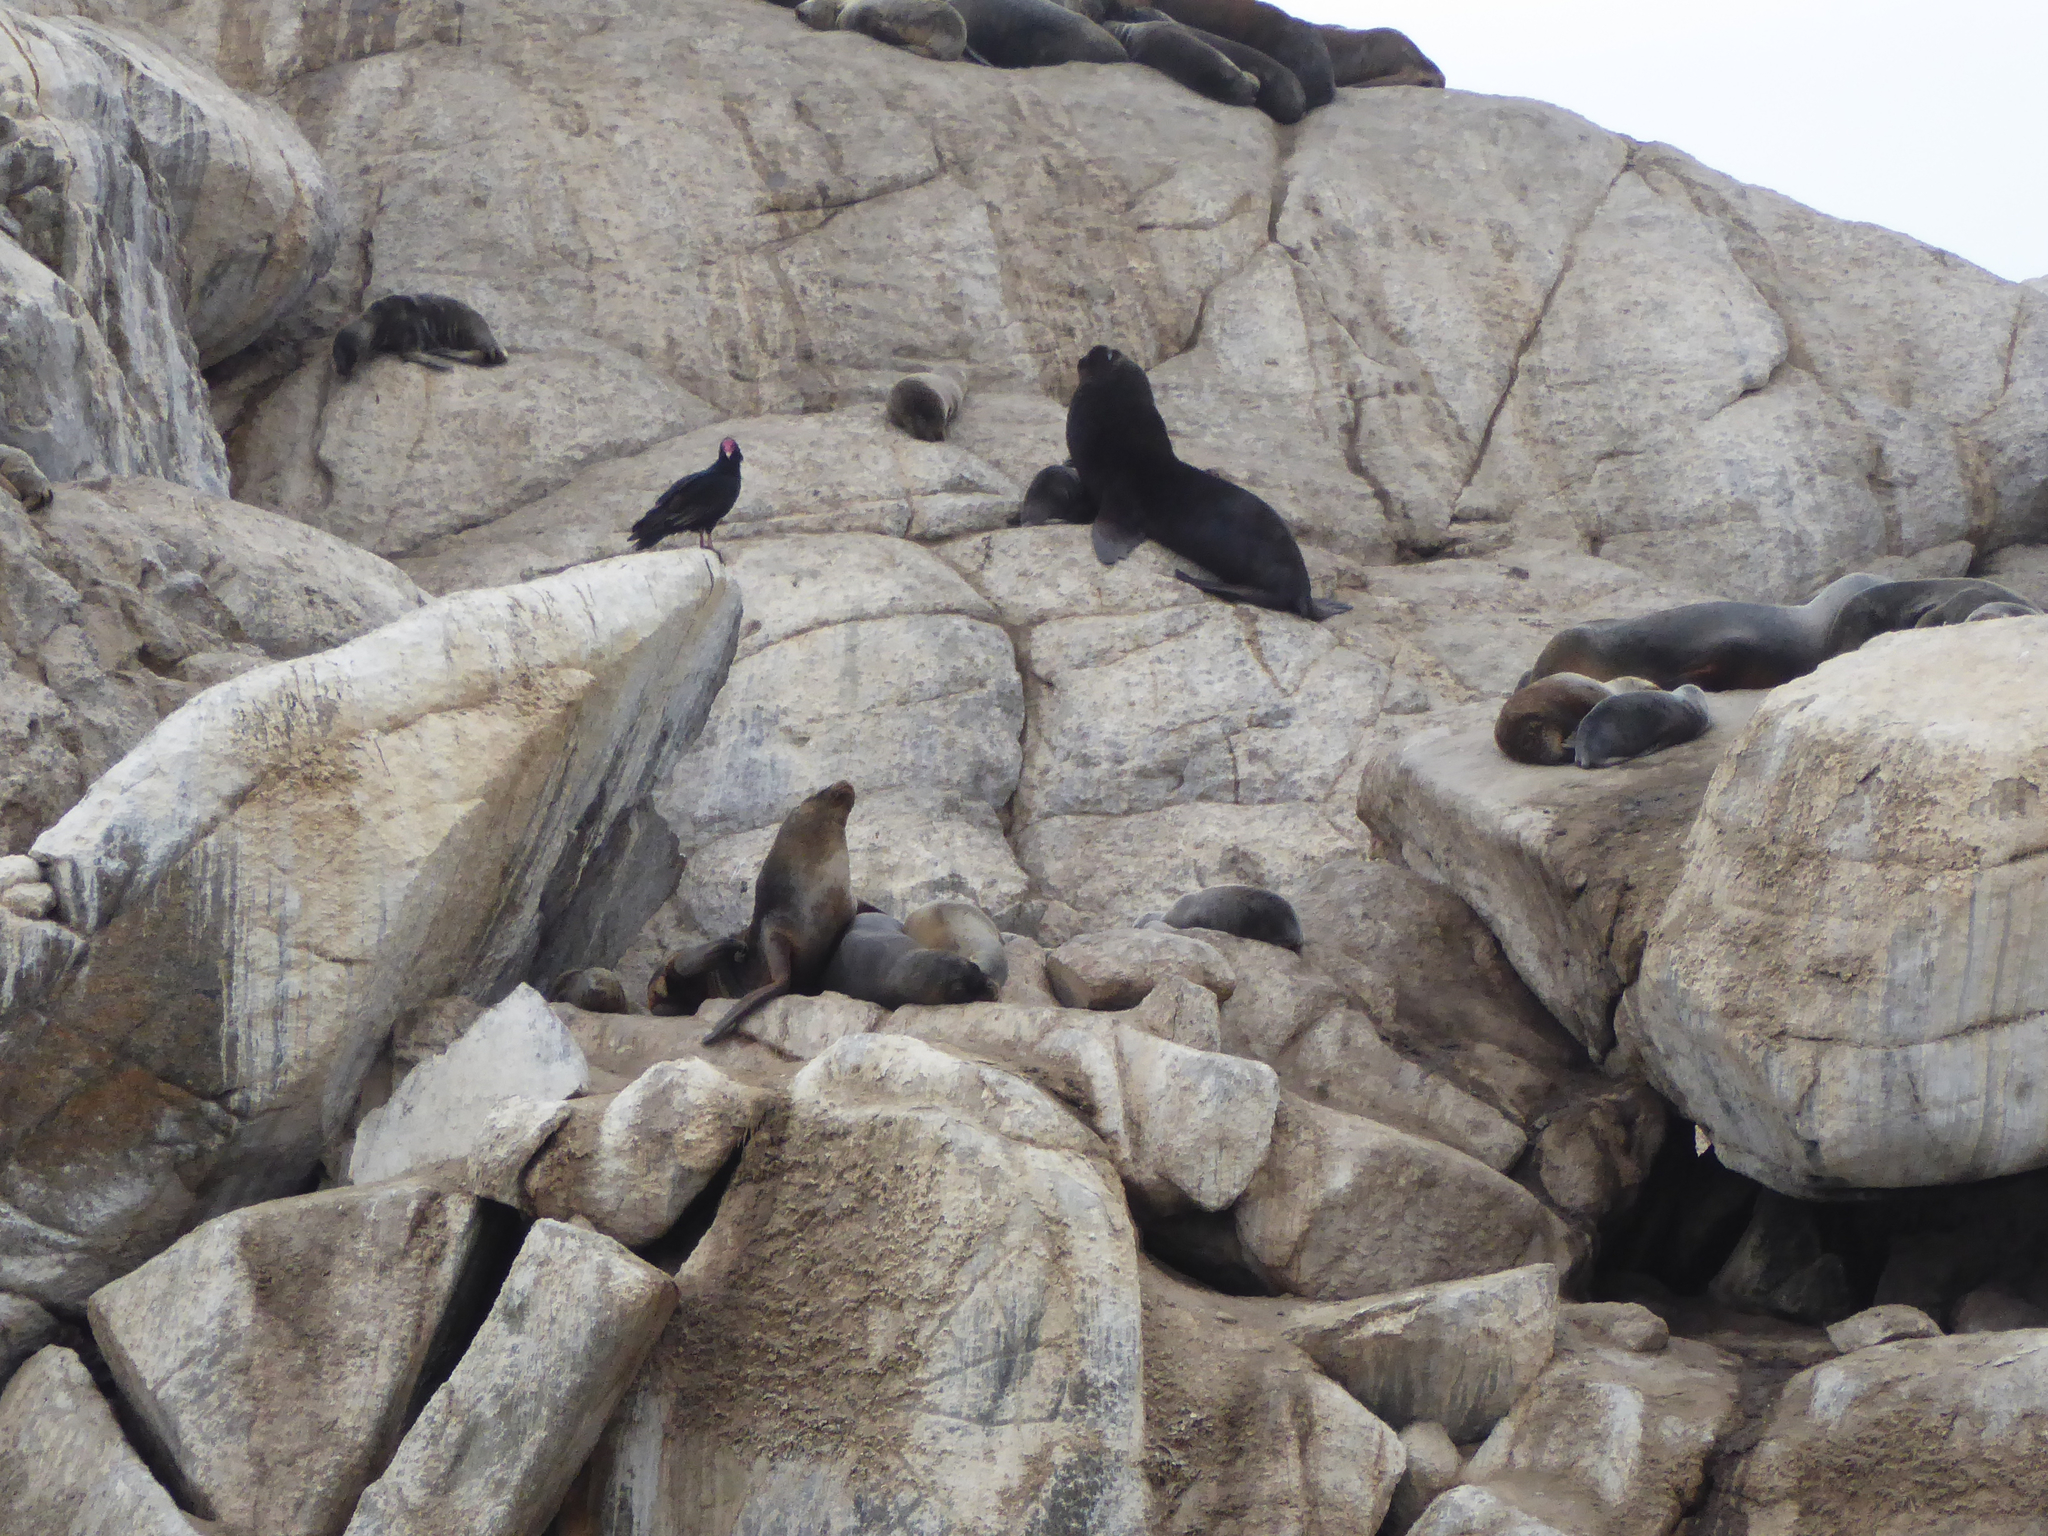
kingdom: Animalia
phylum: Chordata
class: Mammalia
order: Carnivora
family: Otariidae
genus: Otaria
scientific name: Otaria byronia
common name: South american sea lion
